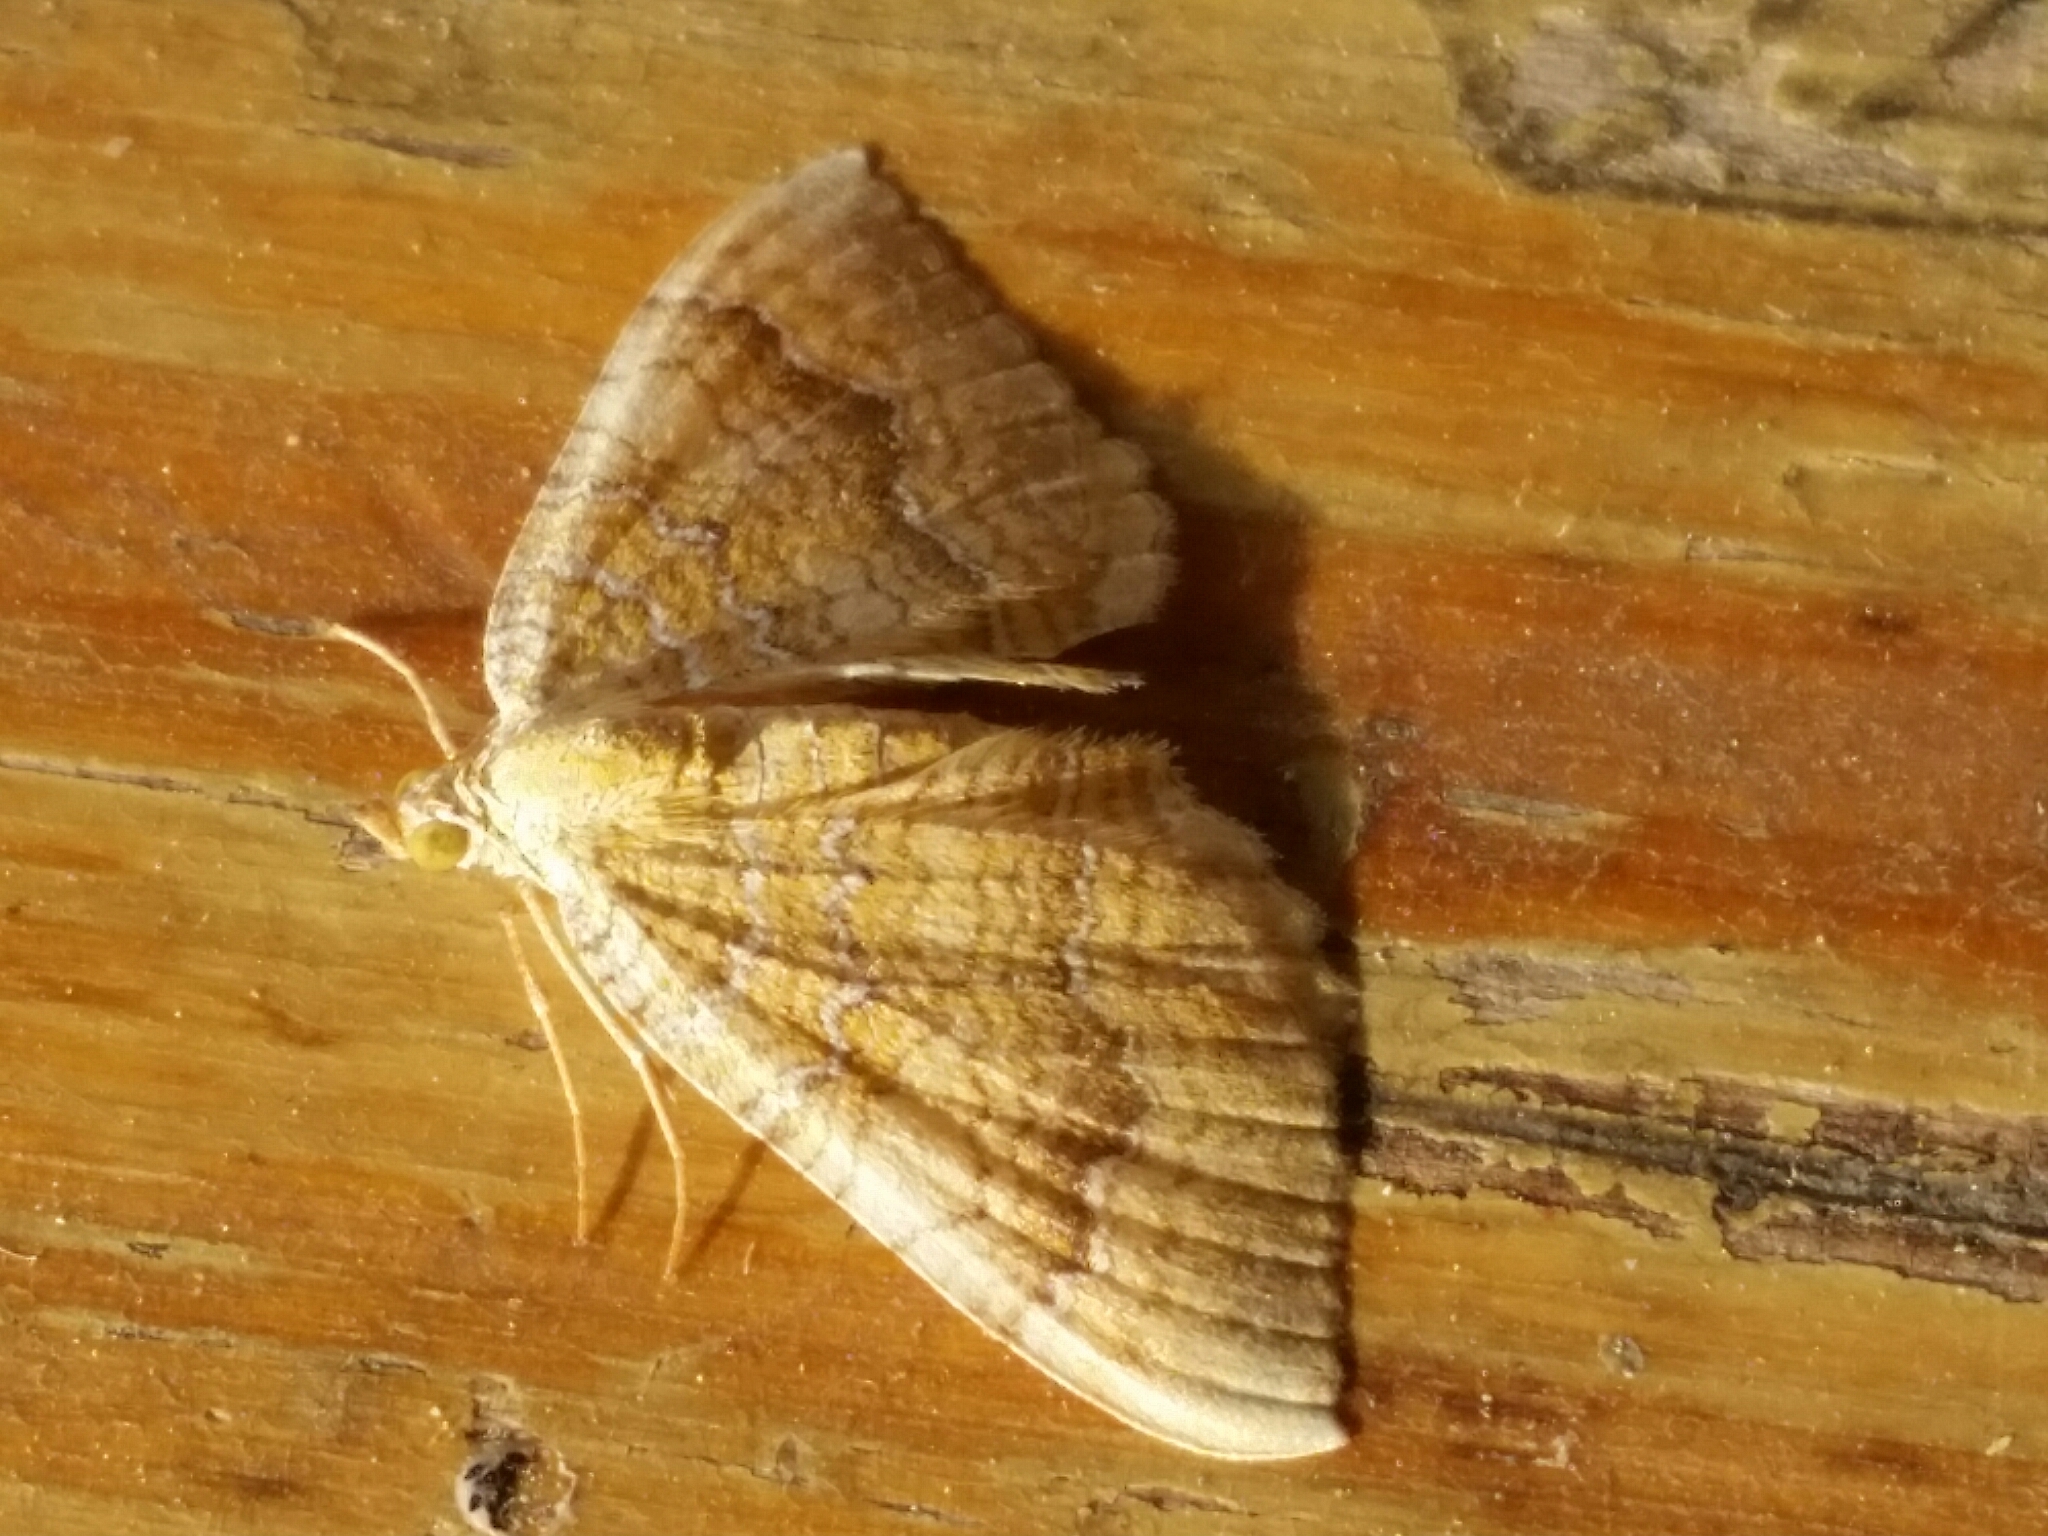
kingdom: Animalia
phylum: Arthropoda
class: Insecta
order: Lepidoptera
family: Geometridae
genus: Camptogramma
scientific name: Camptogramma bilineata
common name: Yellow shell
